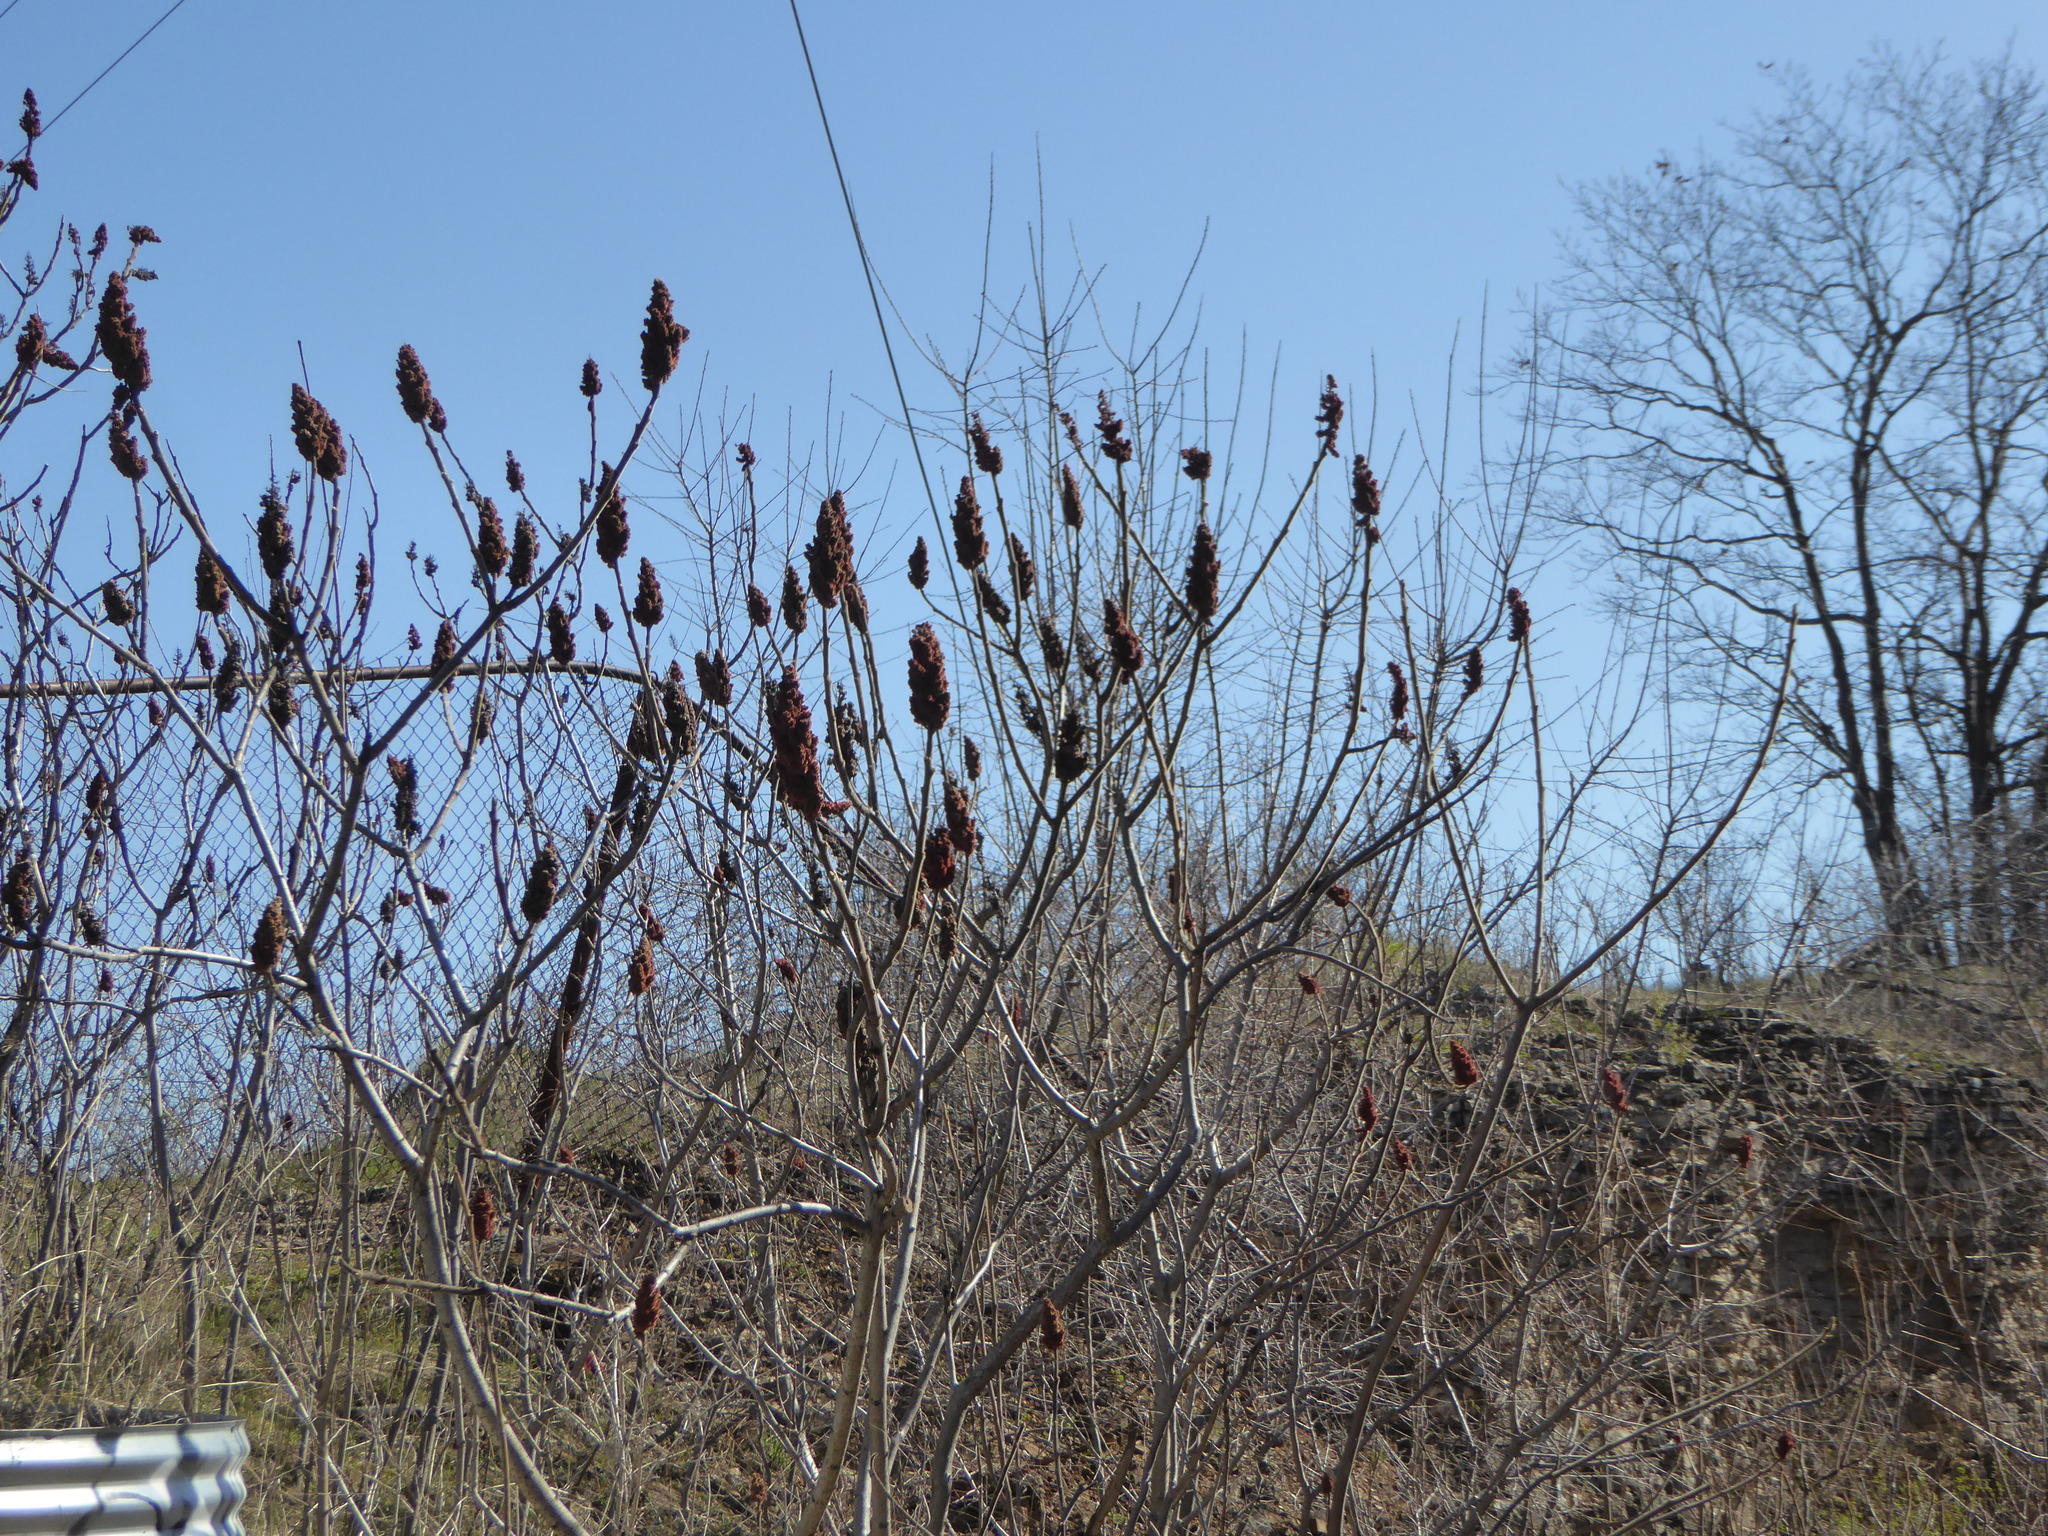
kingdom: Plantae
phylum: Tracheophyta
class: Magnoliopsida
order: Sapindales
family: Anacardiaceae
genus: Rhus
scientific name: Rhus typhina
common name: Staghorn sumac
